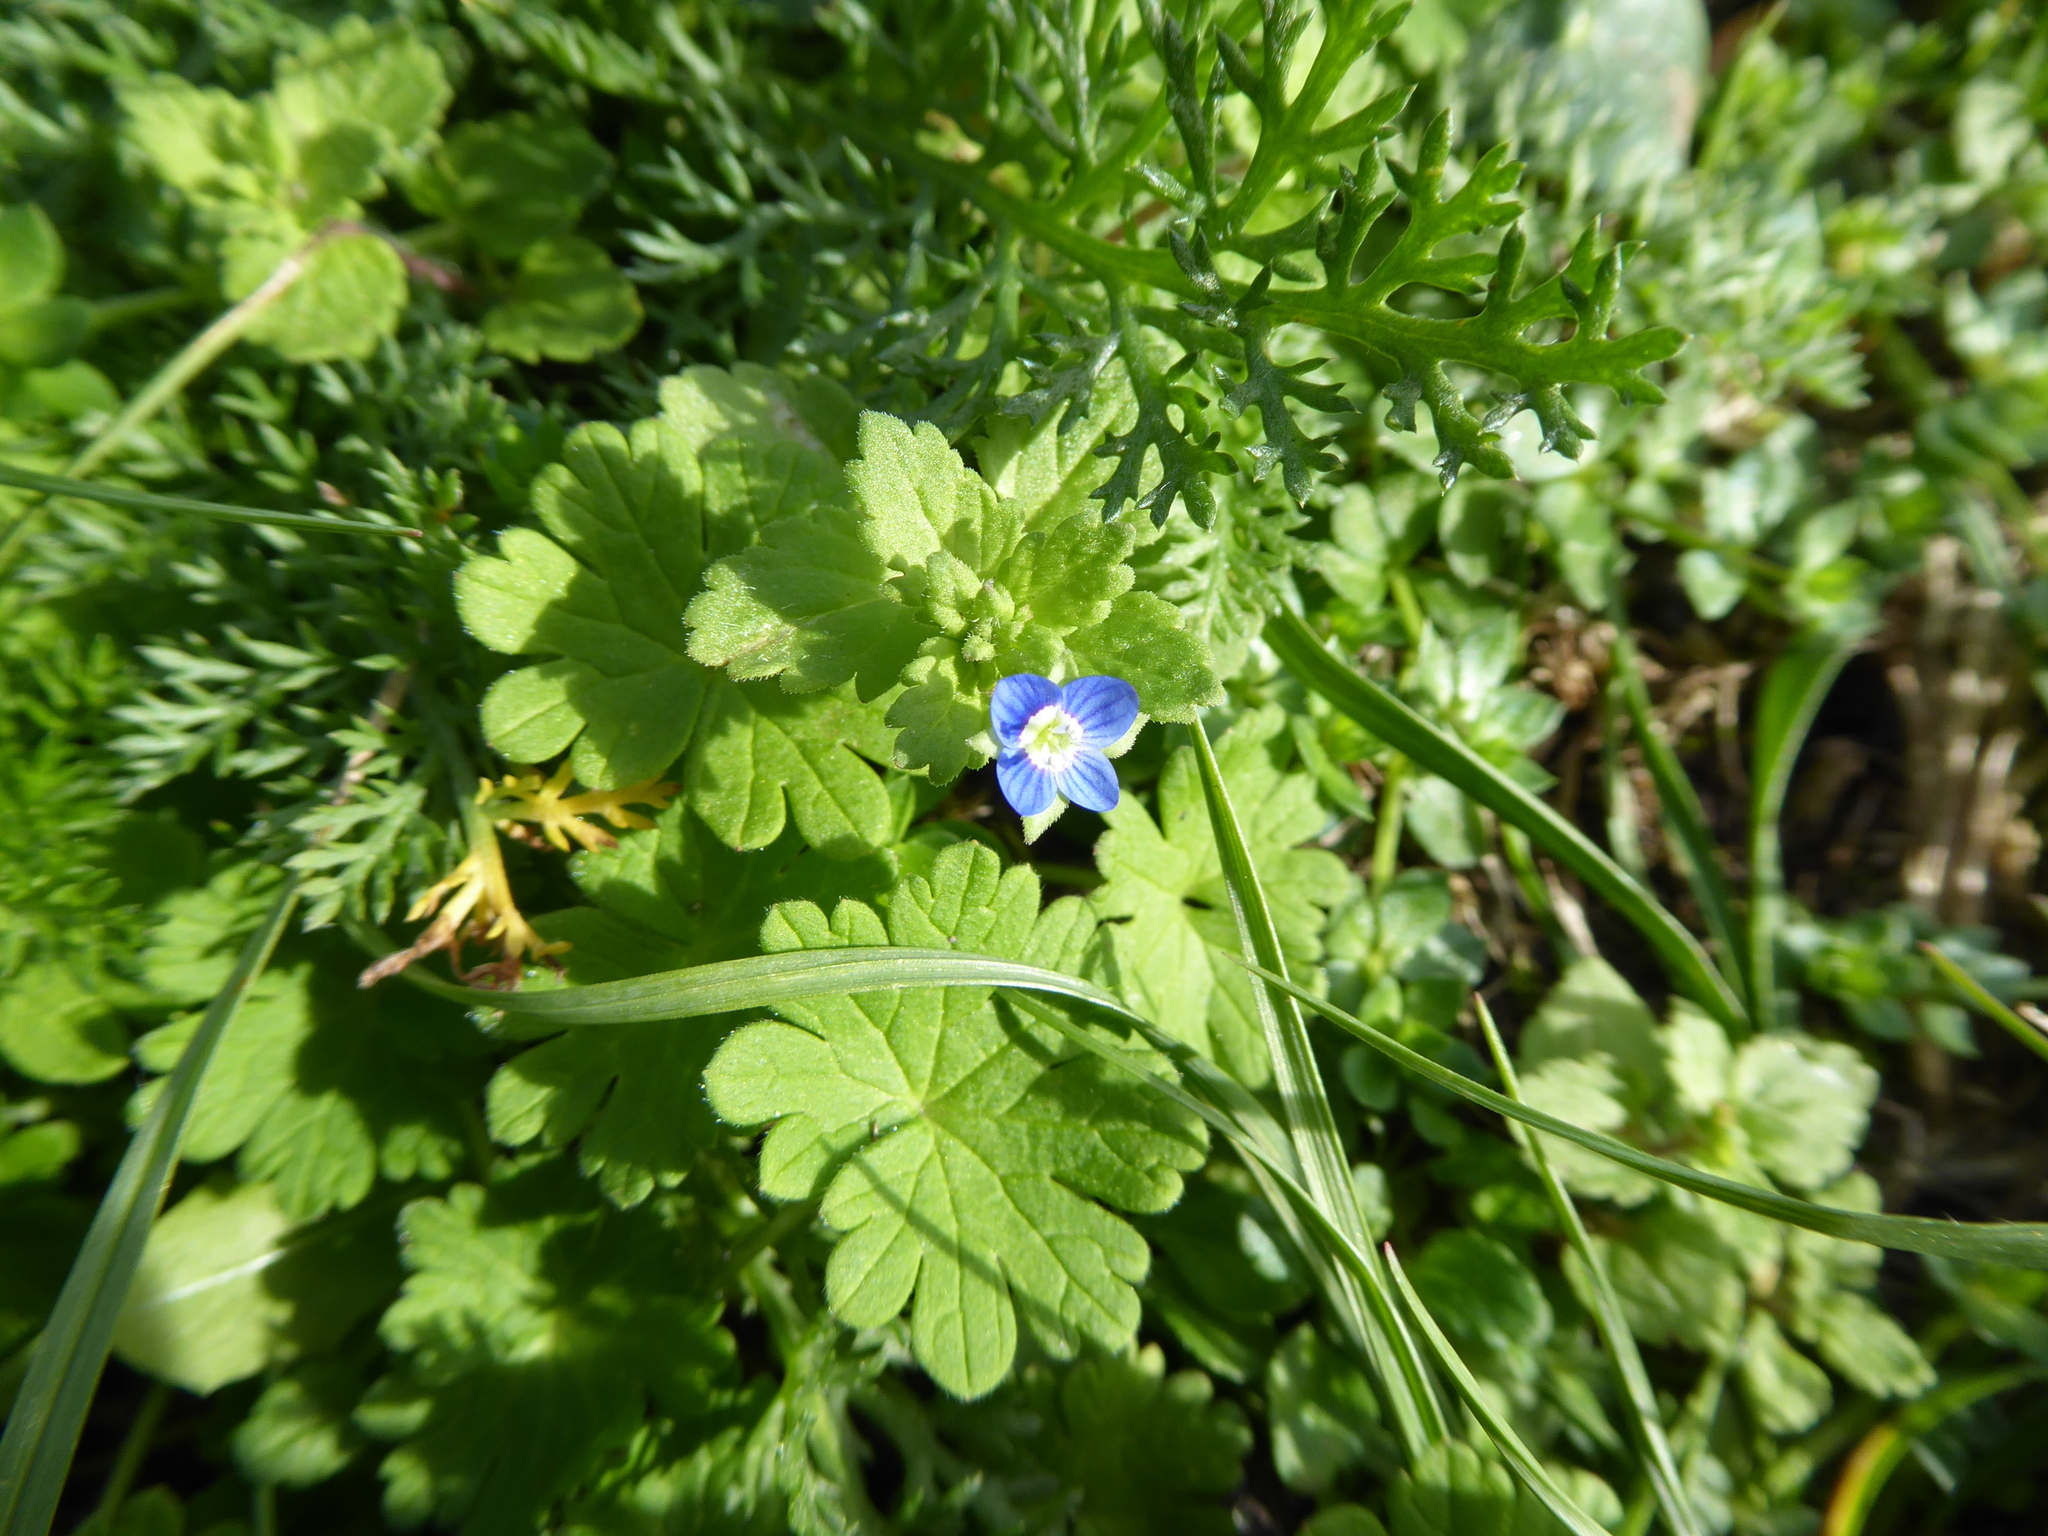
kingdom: Plantae
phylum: Tracheophyta
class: Magnoliopsida
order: Lamiales
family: Plantaginaceae
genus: Veronica
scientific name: Veronica persica
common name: Common field-speedwell
